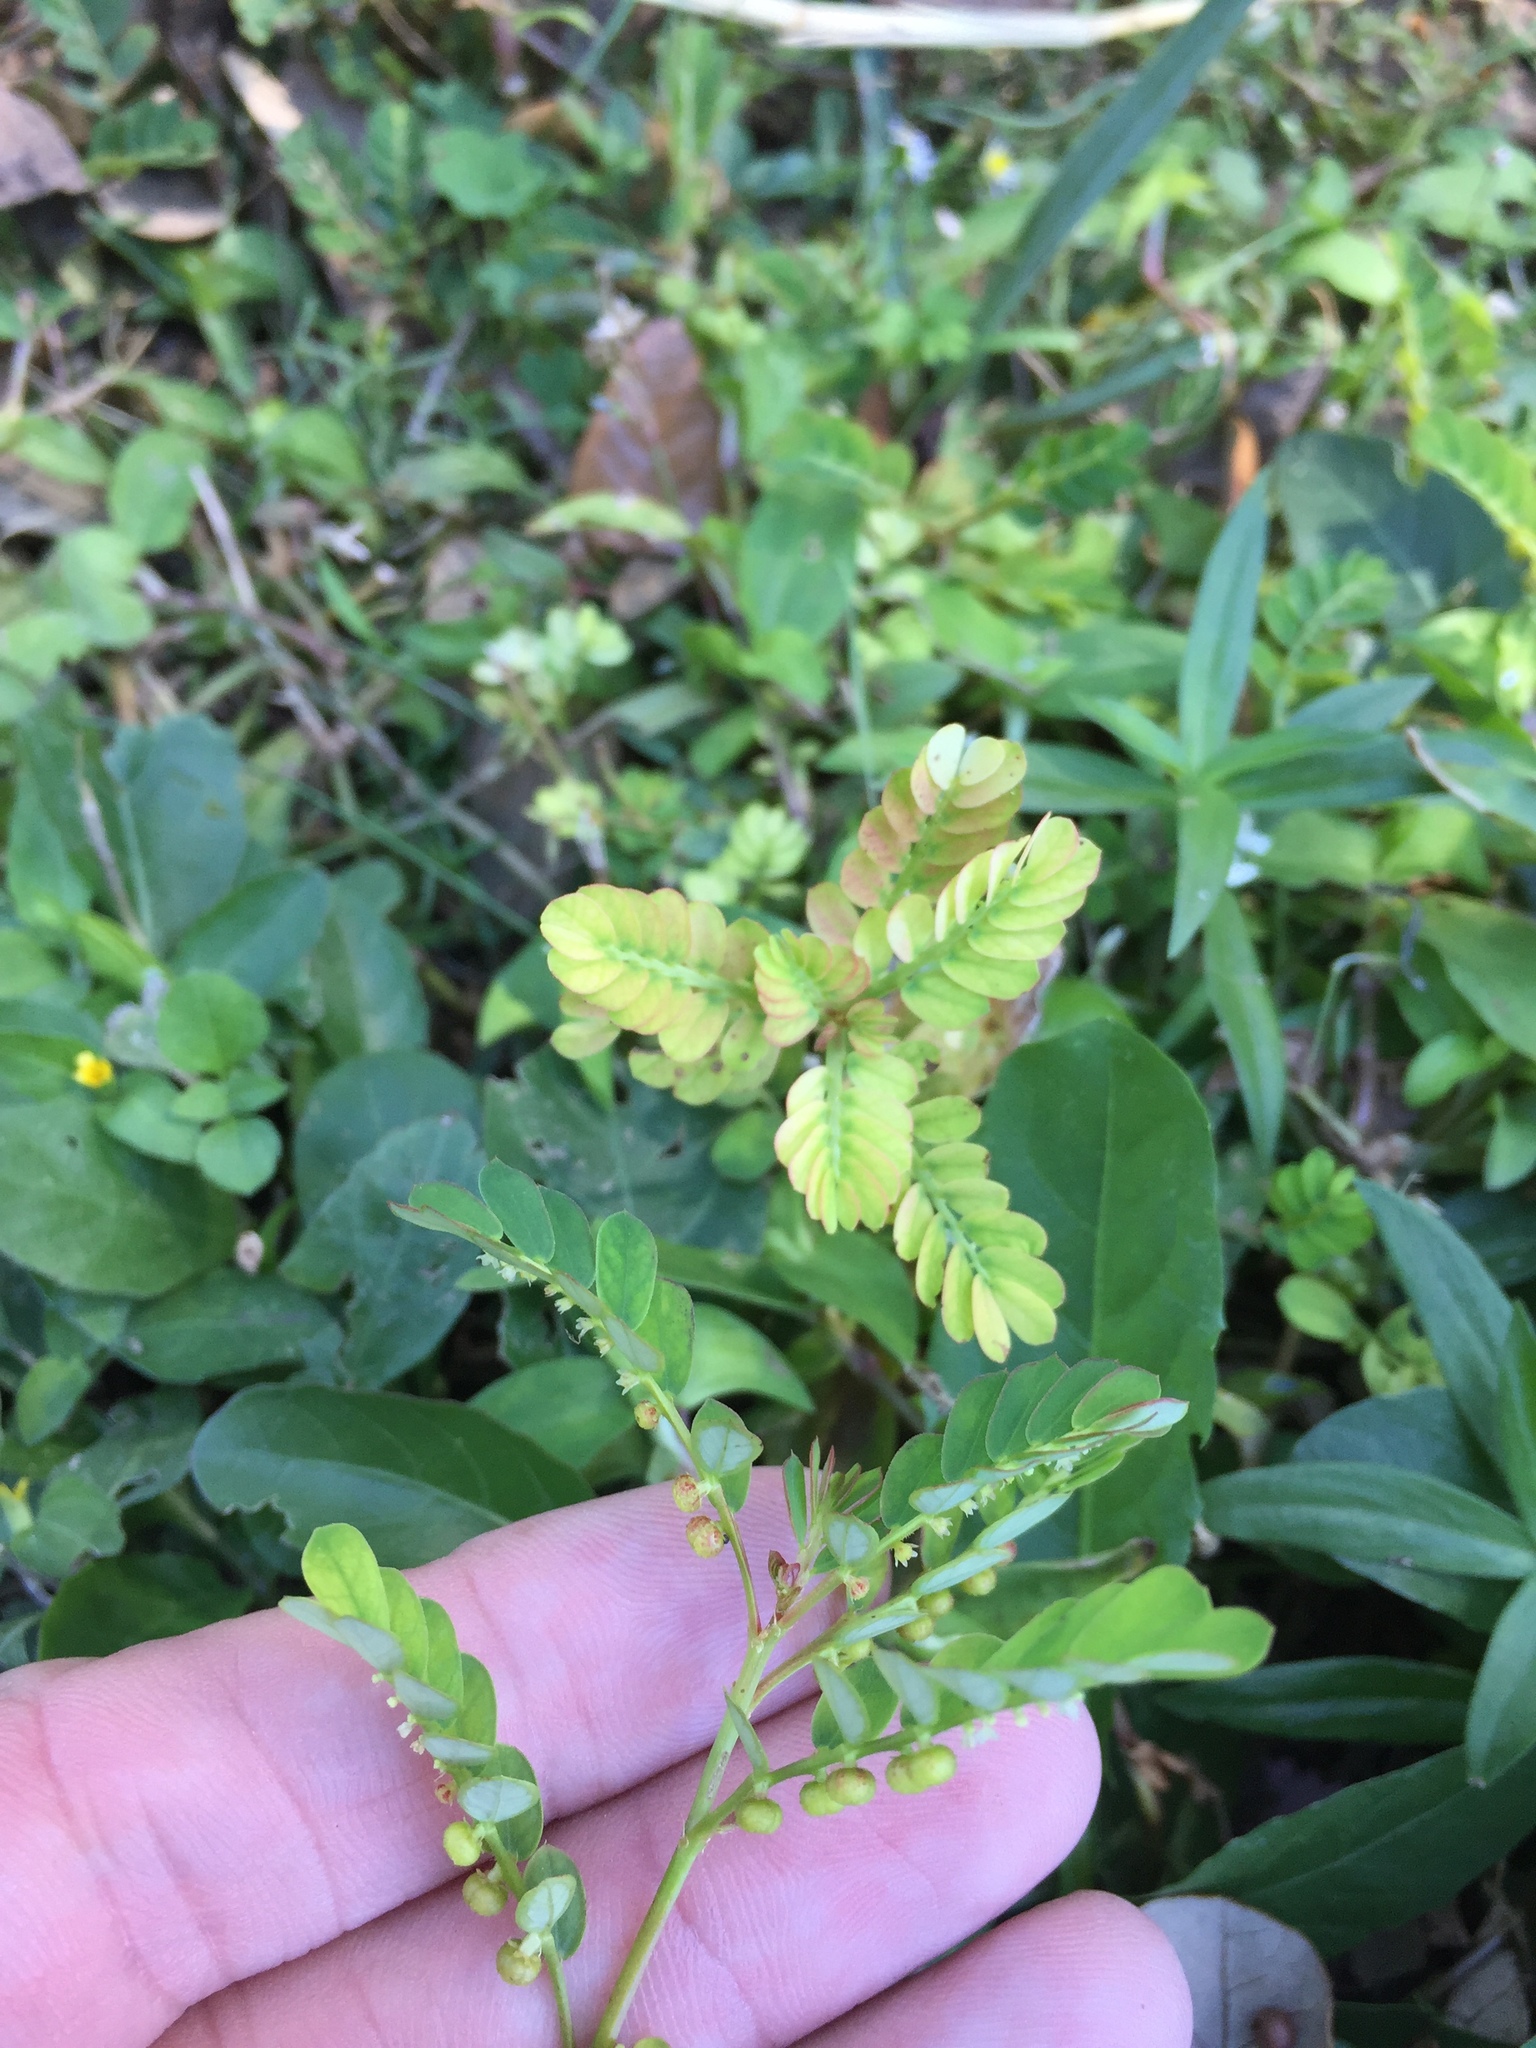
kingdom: Plantae
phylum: Tracheophyta
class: Magnoliopsida
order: Malpighiales
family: Phyllanthaceae
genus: Phyllanthus
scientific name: Phyllanthus urinaria
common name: Chamber bitter
